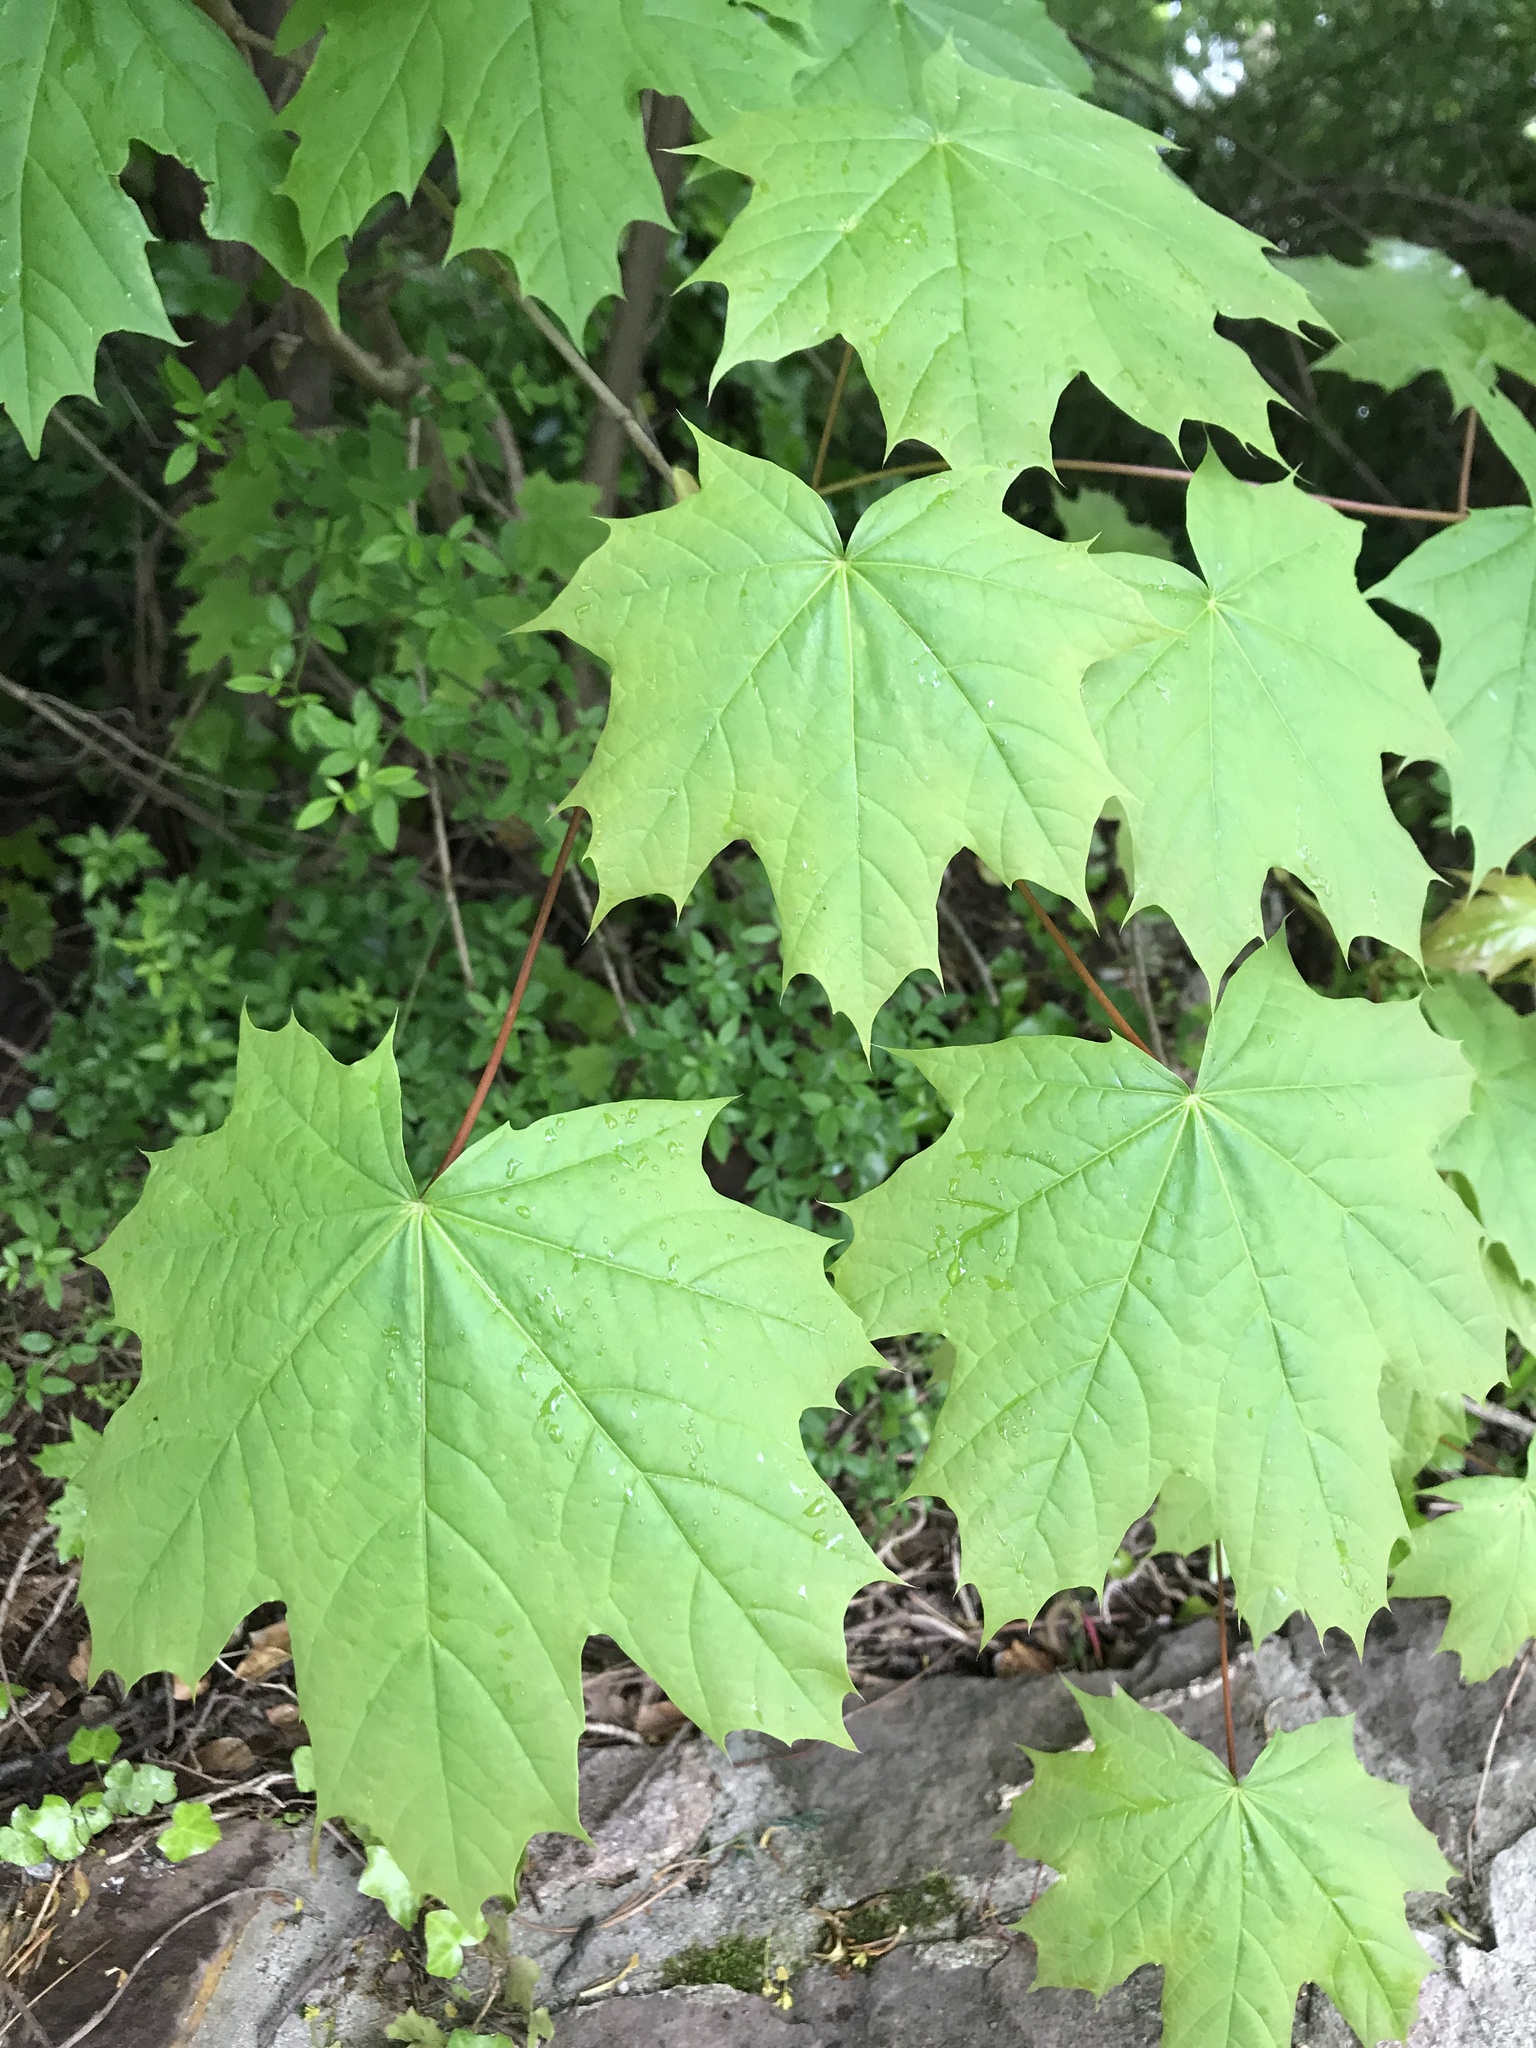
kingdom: Plantae
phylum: Tracheophyta
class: Magnoliopsida
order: Sapindales
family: Sapindaceae
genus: Acer
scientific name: Acer platanoides
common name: Norway maple
